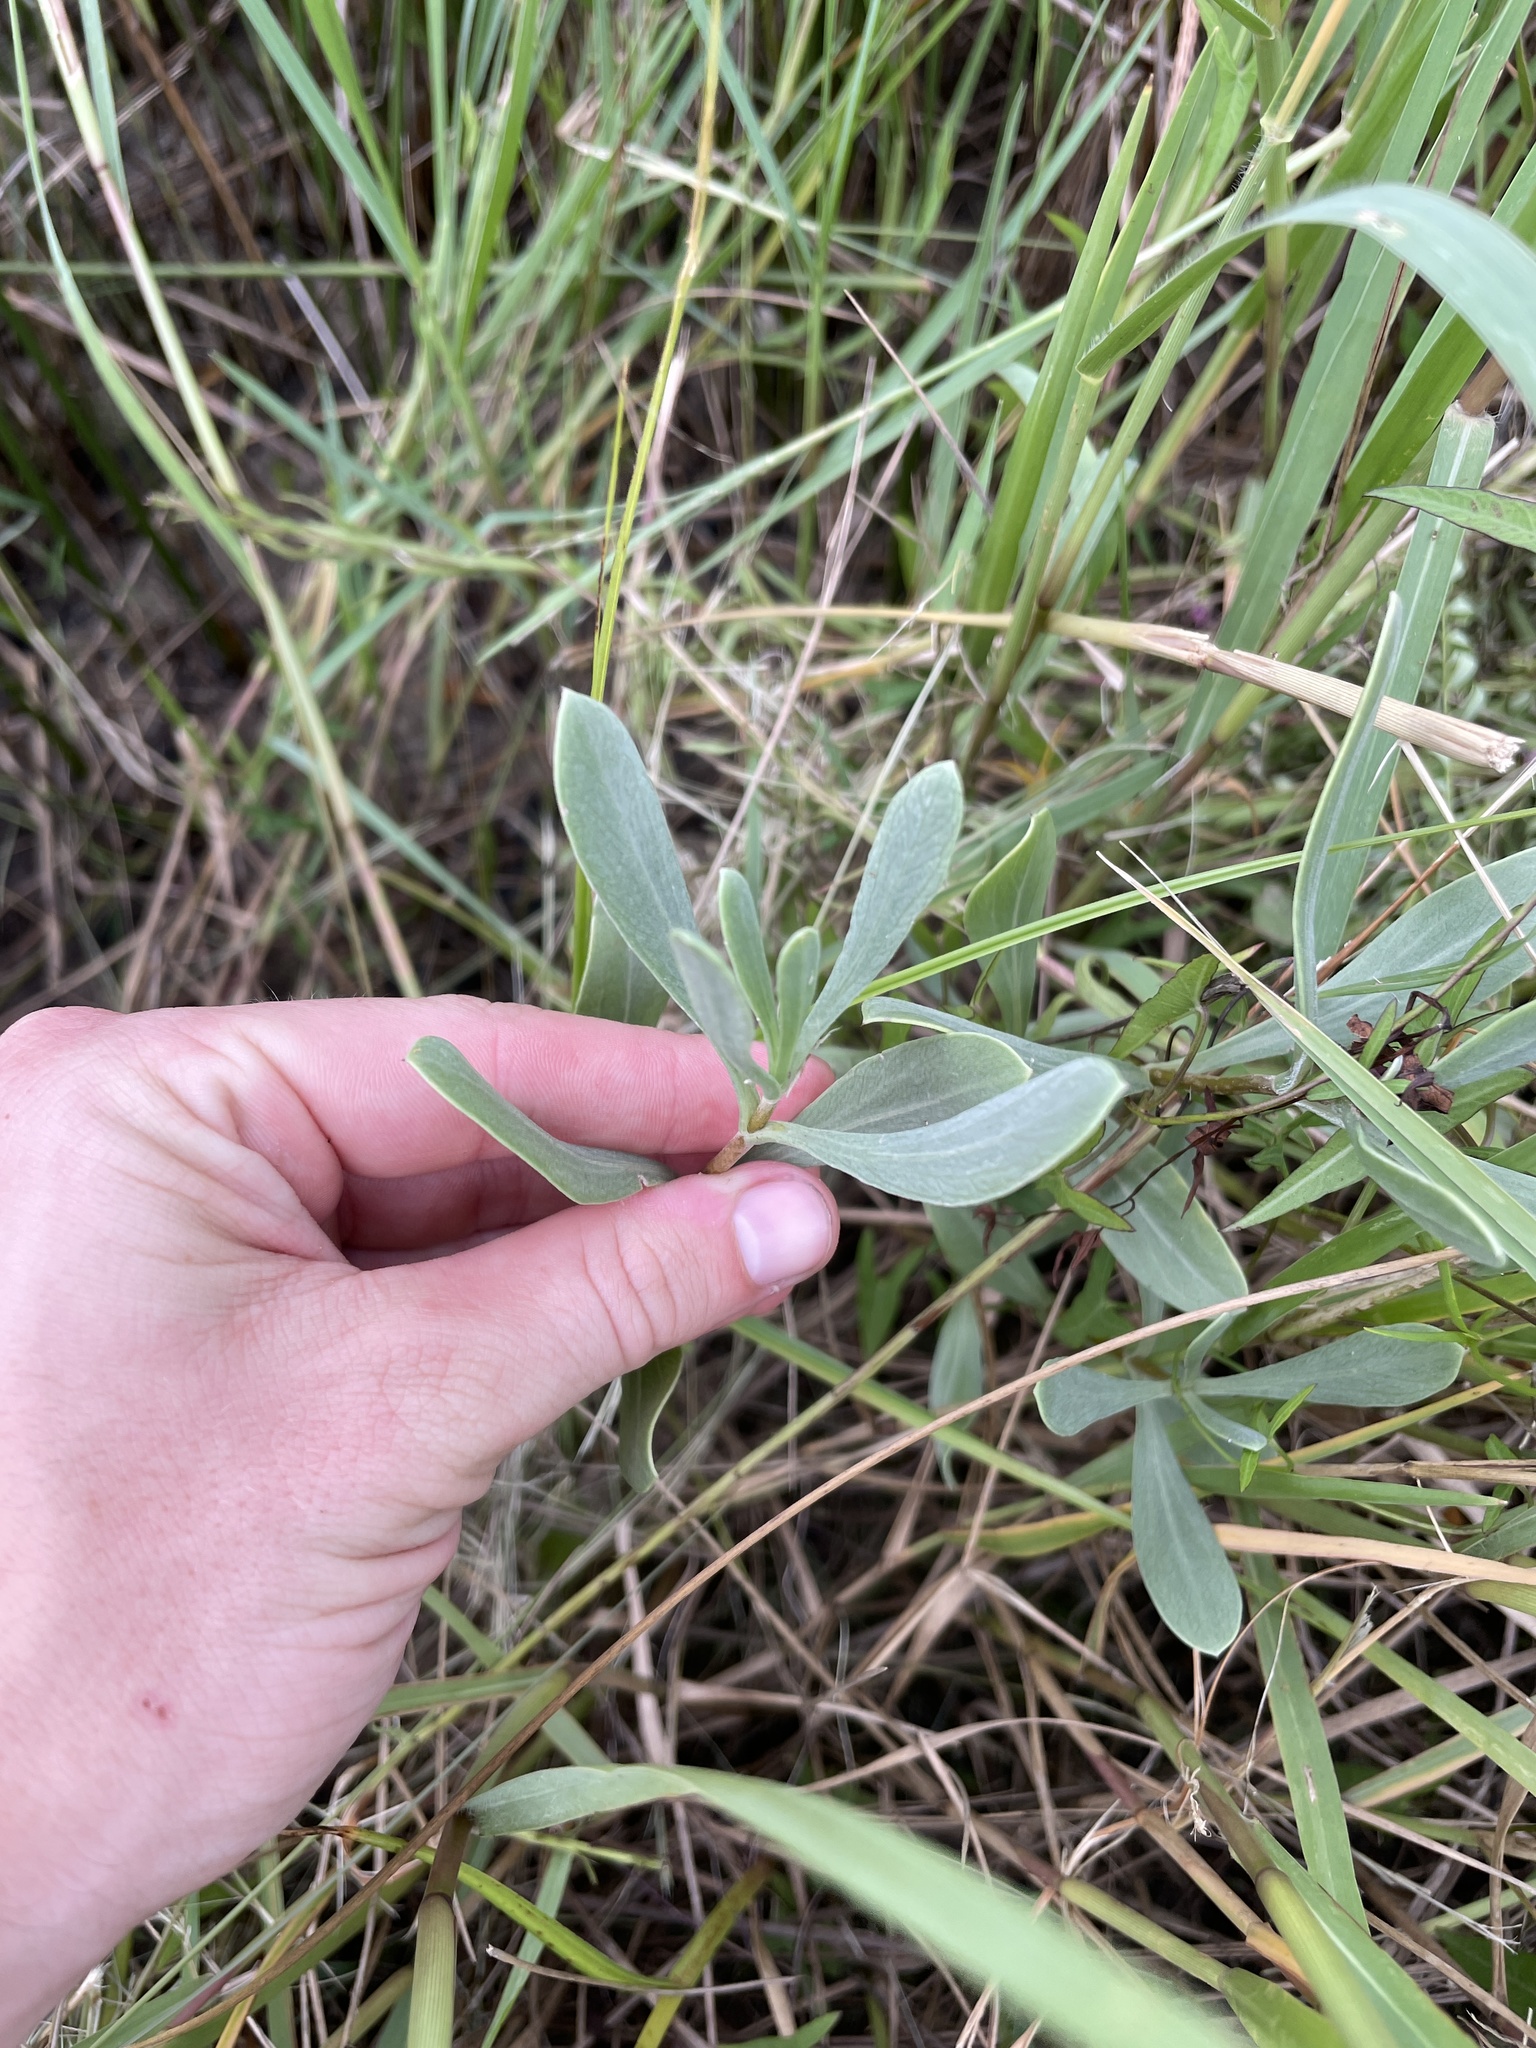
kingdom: Plantae
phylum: Tracheophyta
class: Magnoliopsida
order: Asterales
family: Asteraceae
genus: Borrichia
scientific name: Borrichia frutescens
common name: Sea oxeye
